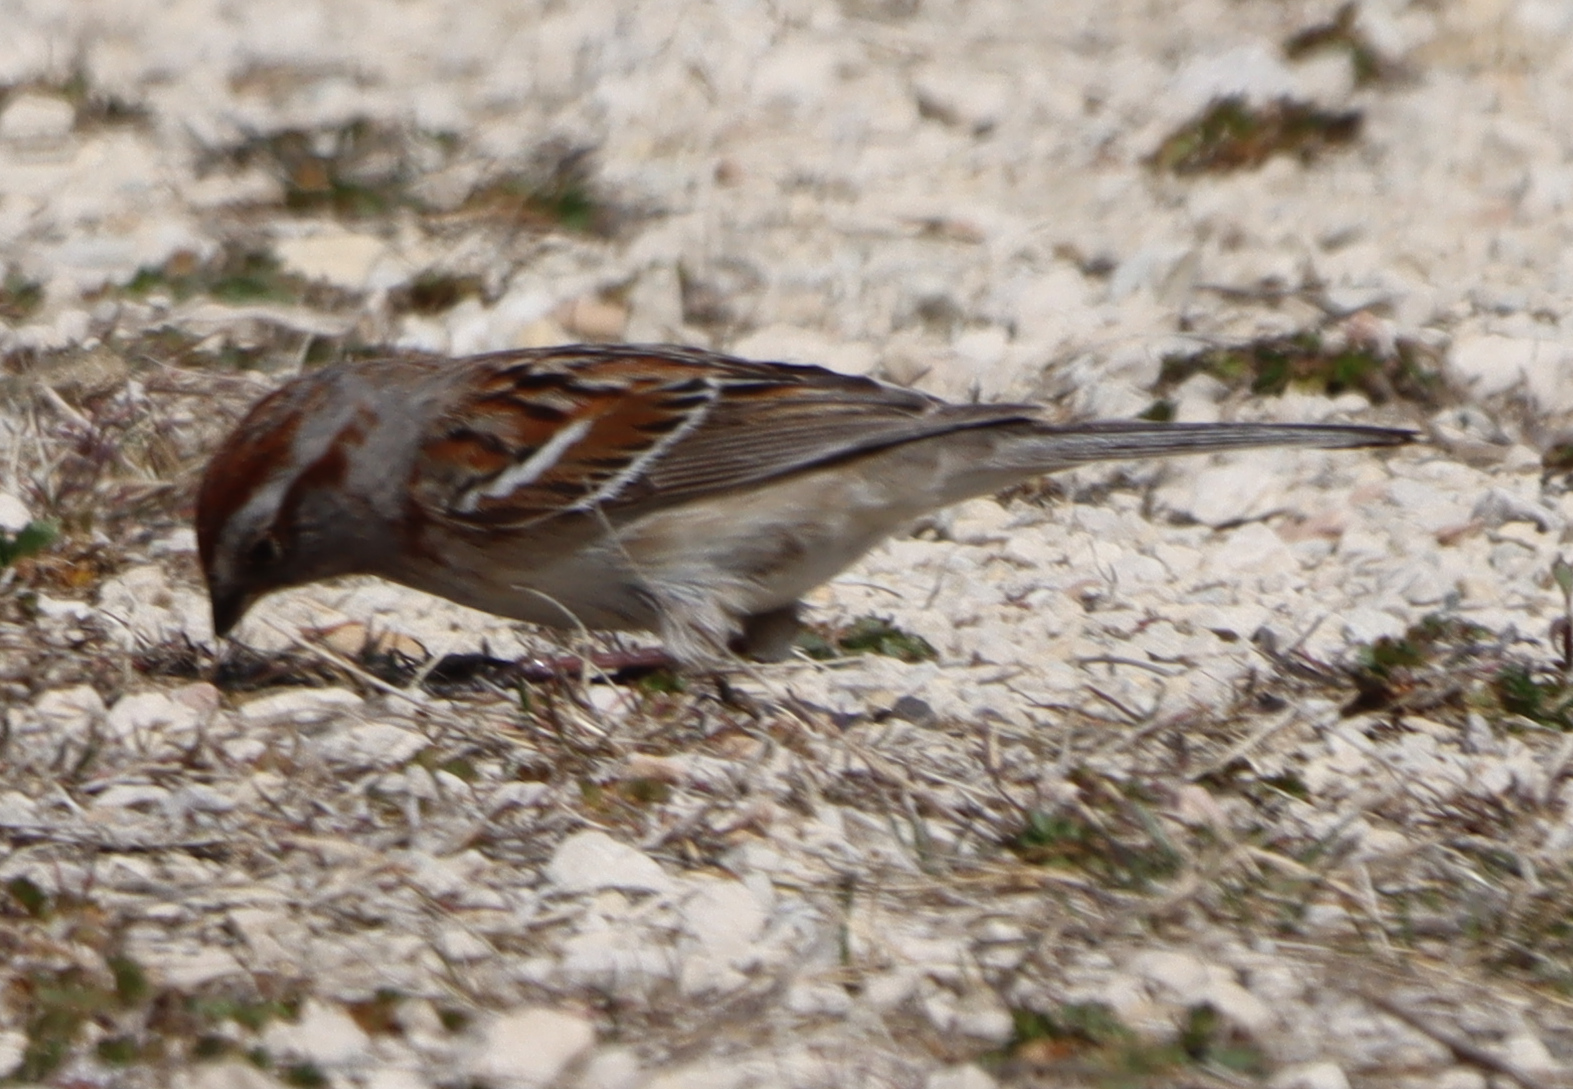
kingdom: Animalia
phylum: Chordata
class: Aves
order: Passeriformes
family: Passerellidae
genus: Spizelloides
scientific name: Spizelloides arborea
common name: American tree sparrow
